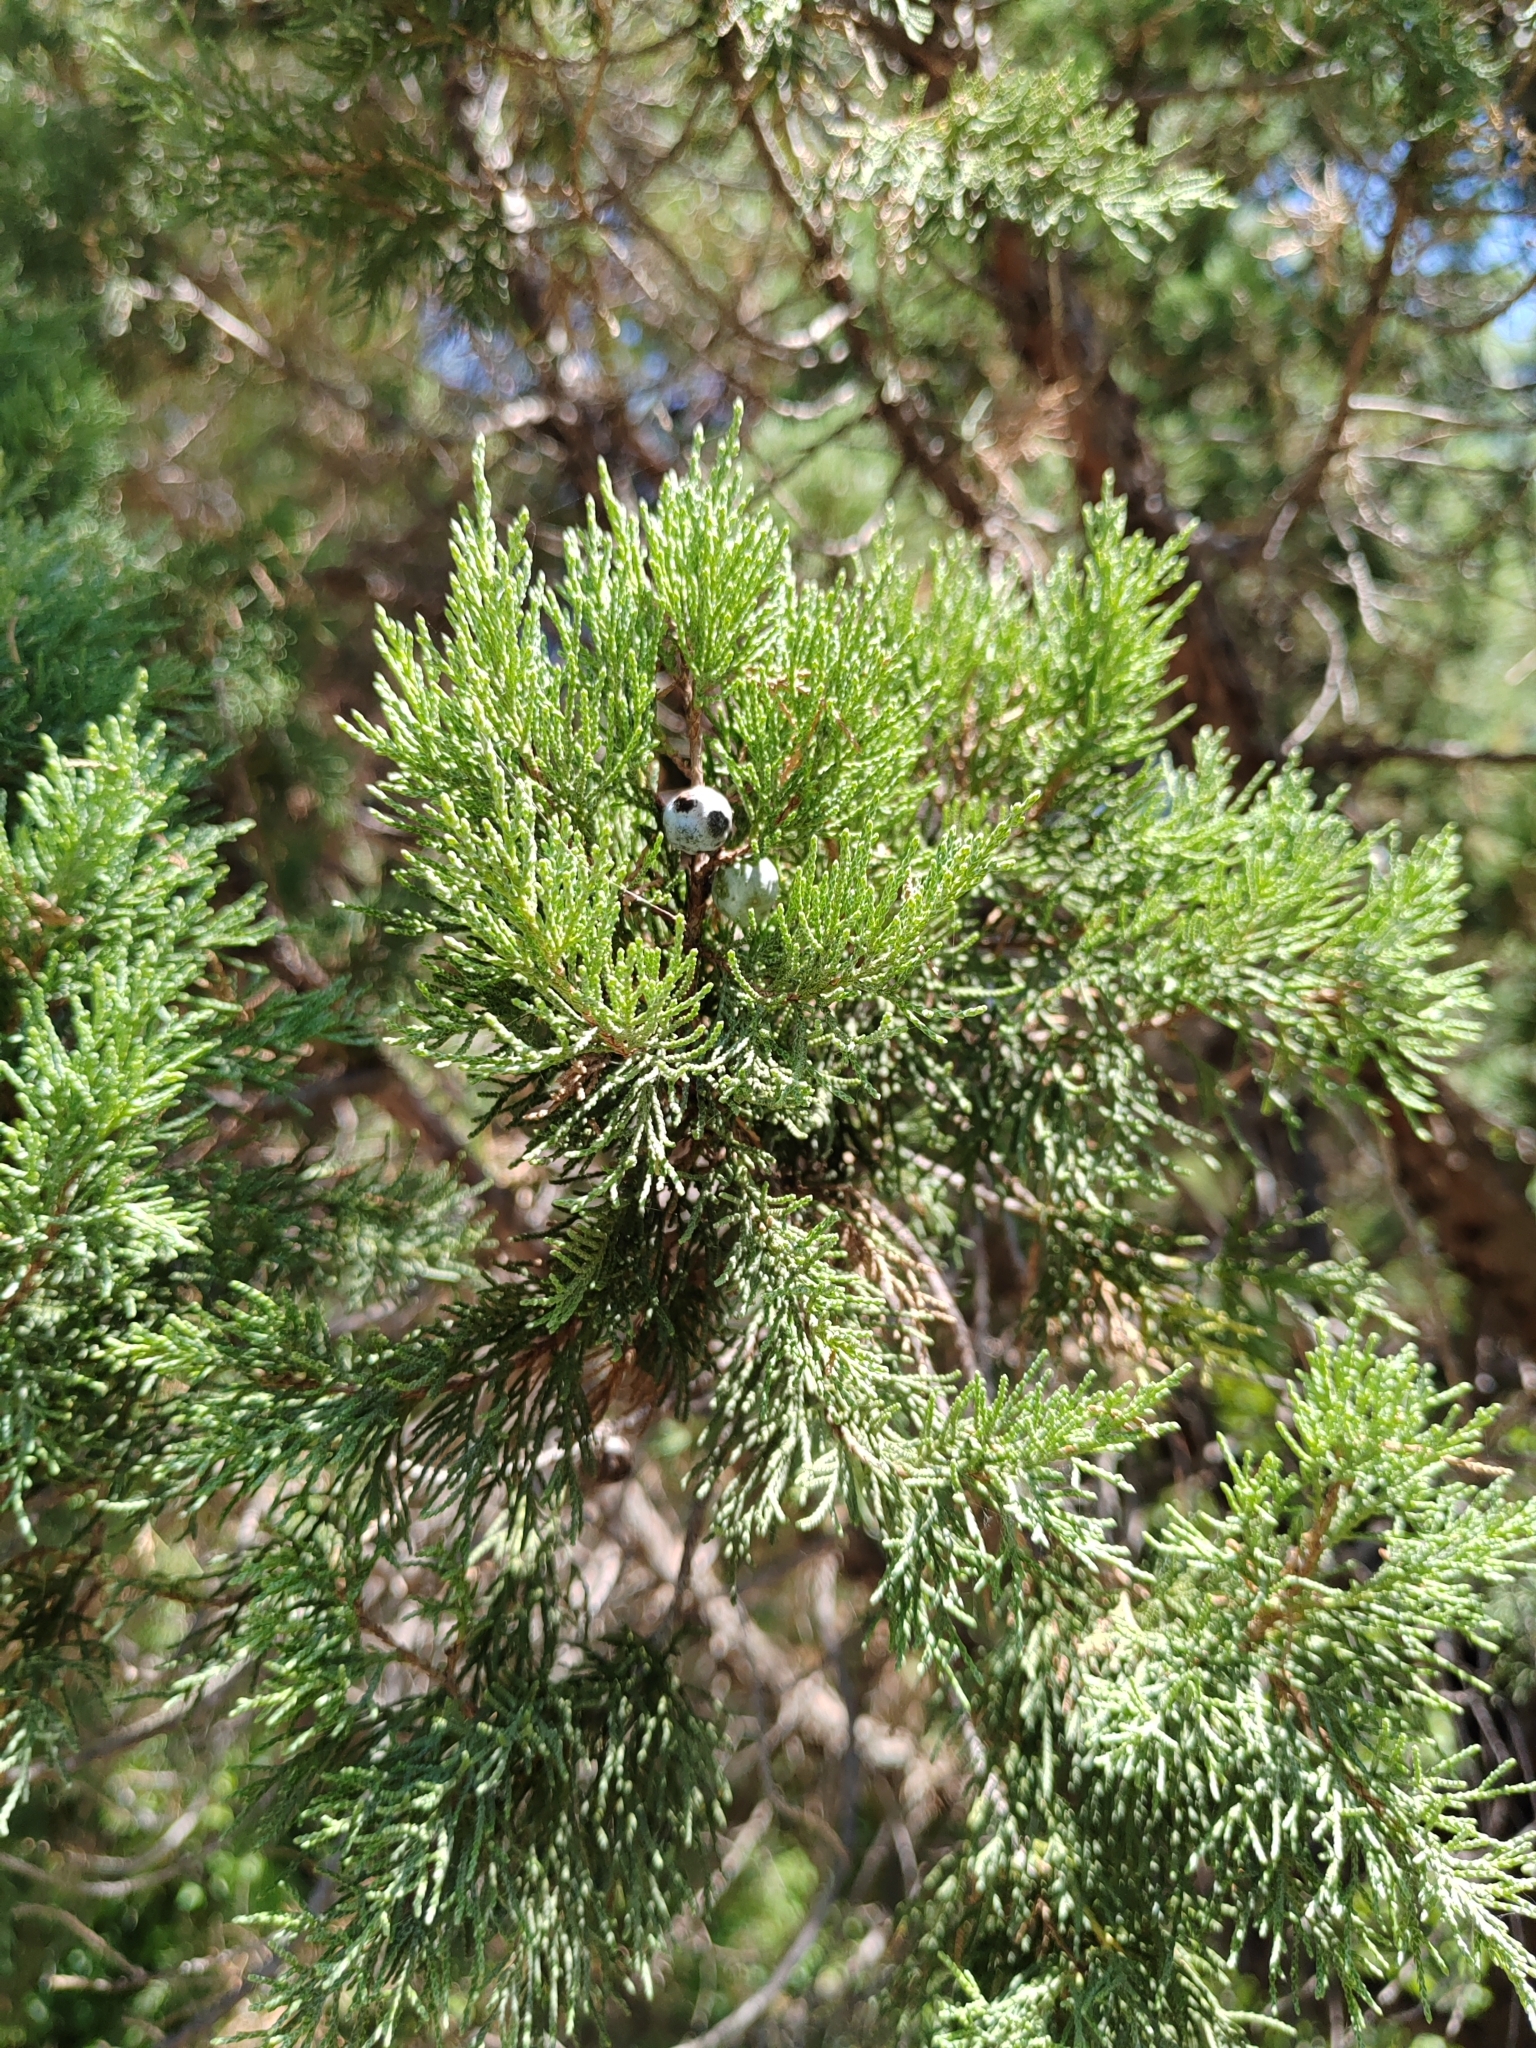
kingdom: Plantae
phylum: Tracheophyta
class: Pinopsida
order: Pinales
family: Cupressaceae
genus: Juniperus
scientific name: Juniperus excelsa
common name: Crimean juniper
